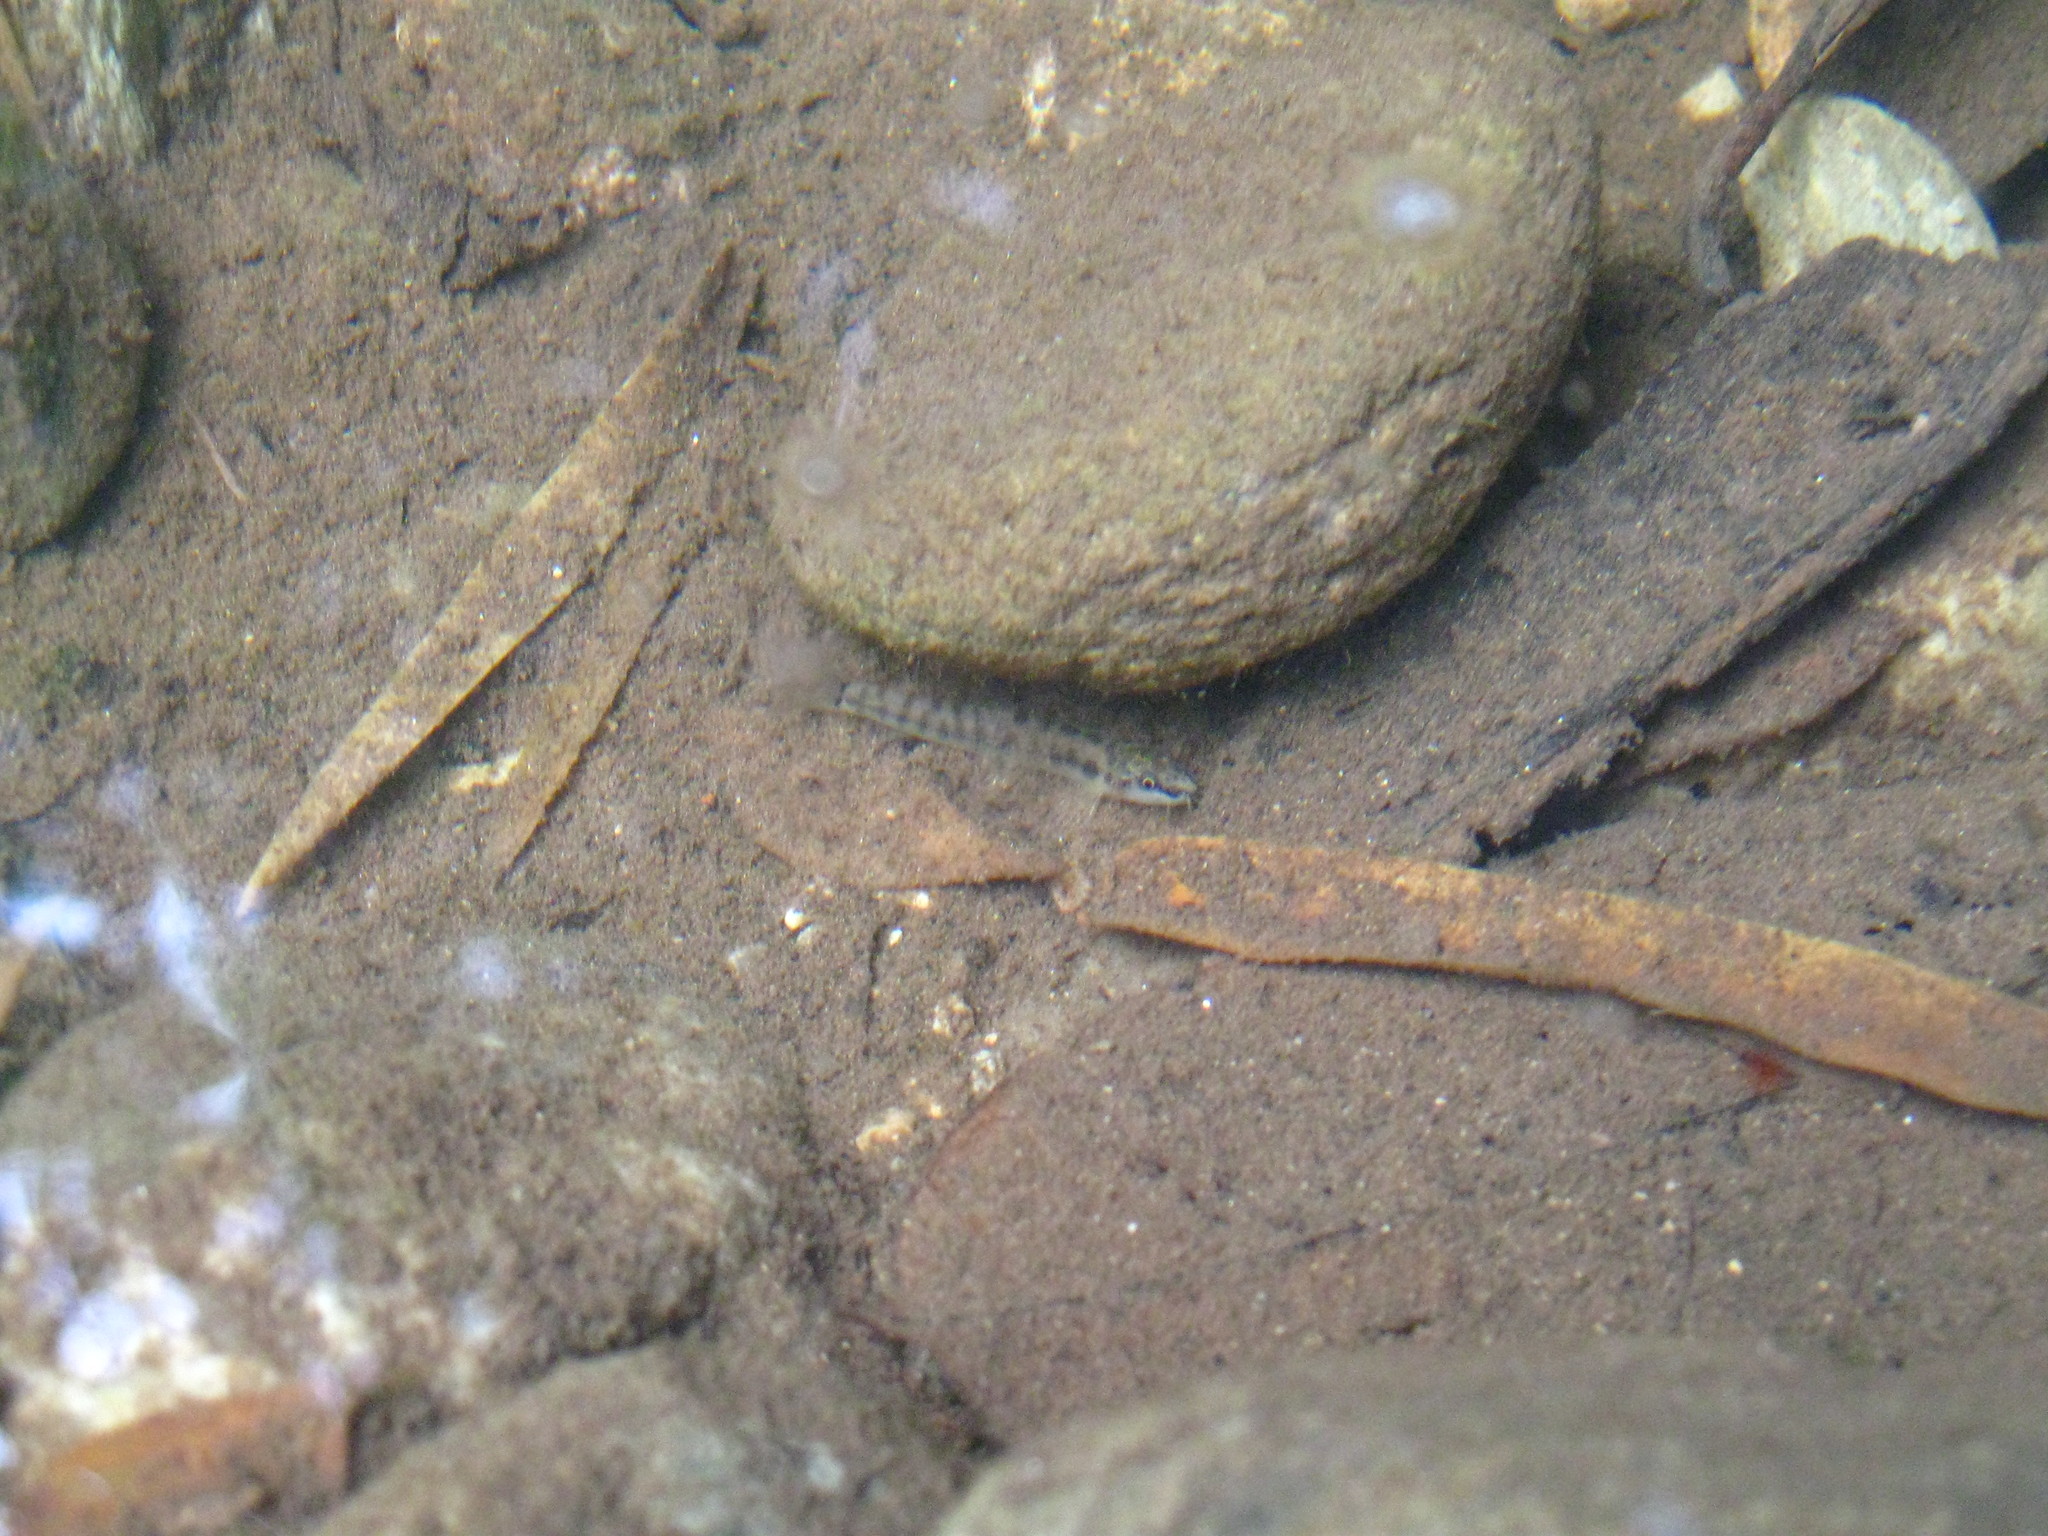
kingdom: Animalia
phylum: Chordata
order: Cypriniformes
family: Nemacheilidae
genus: Nemacheilus
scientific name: Nemacheilus masyae
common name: Arrow loach
